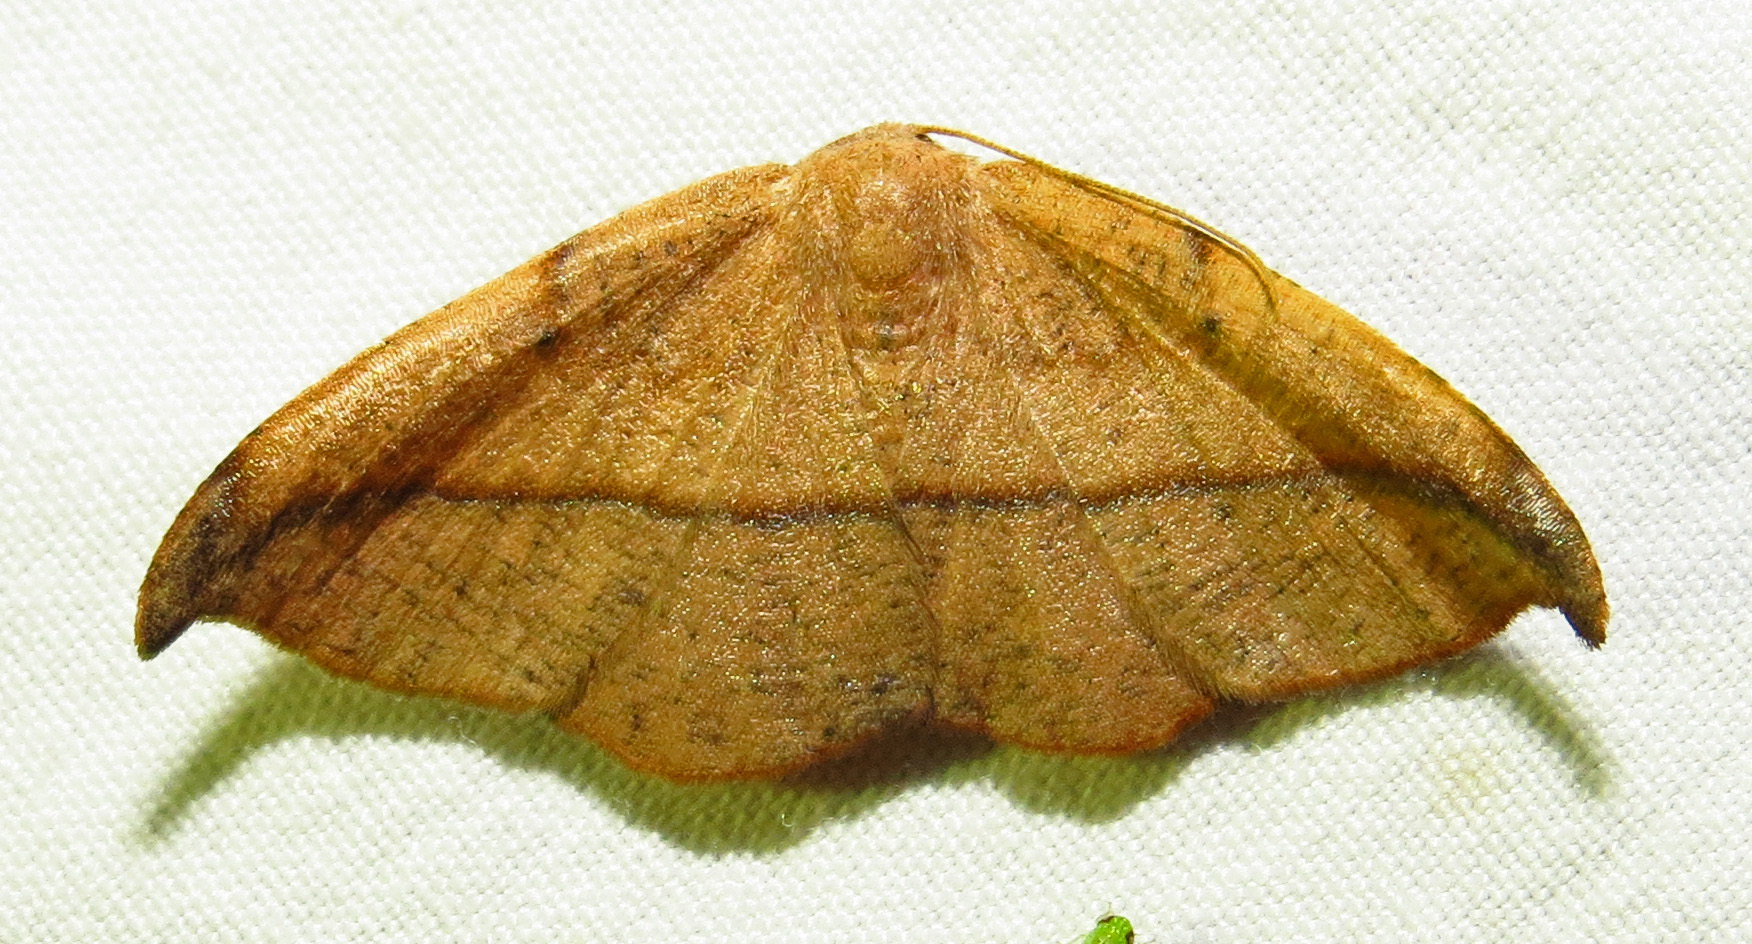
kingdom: Animalia
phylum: Arthropoda
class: Insecta
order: Lepidoptera
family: Geometridae
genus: Patalene
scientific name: Patalene olyzonaria
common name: Juniper geometer moth
